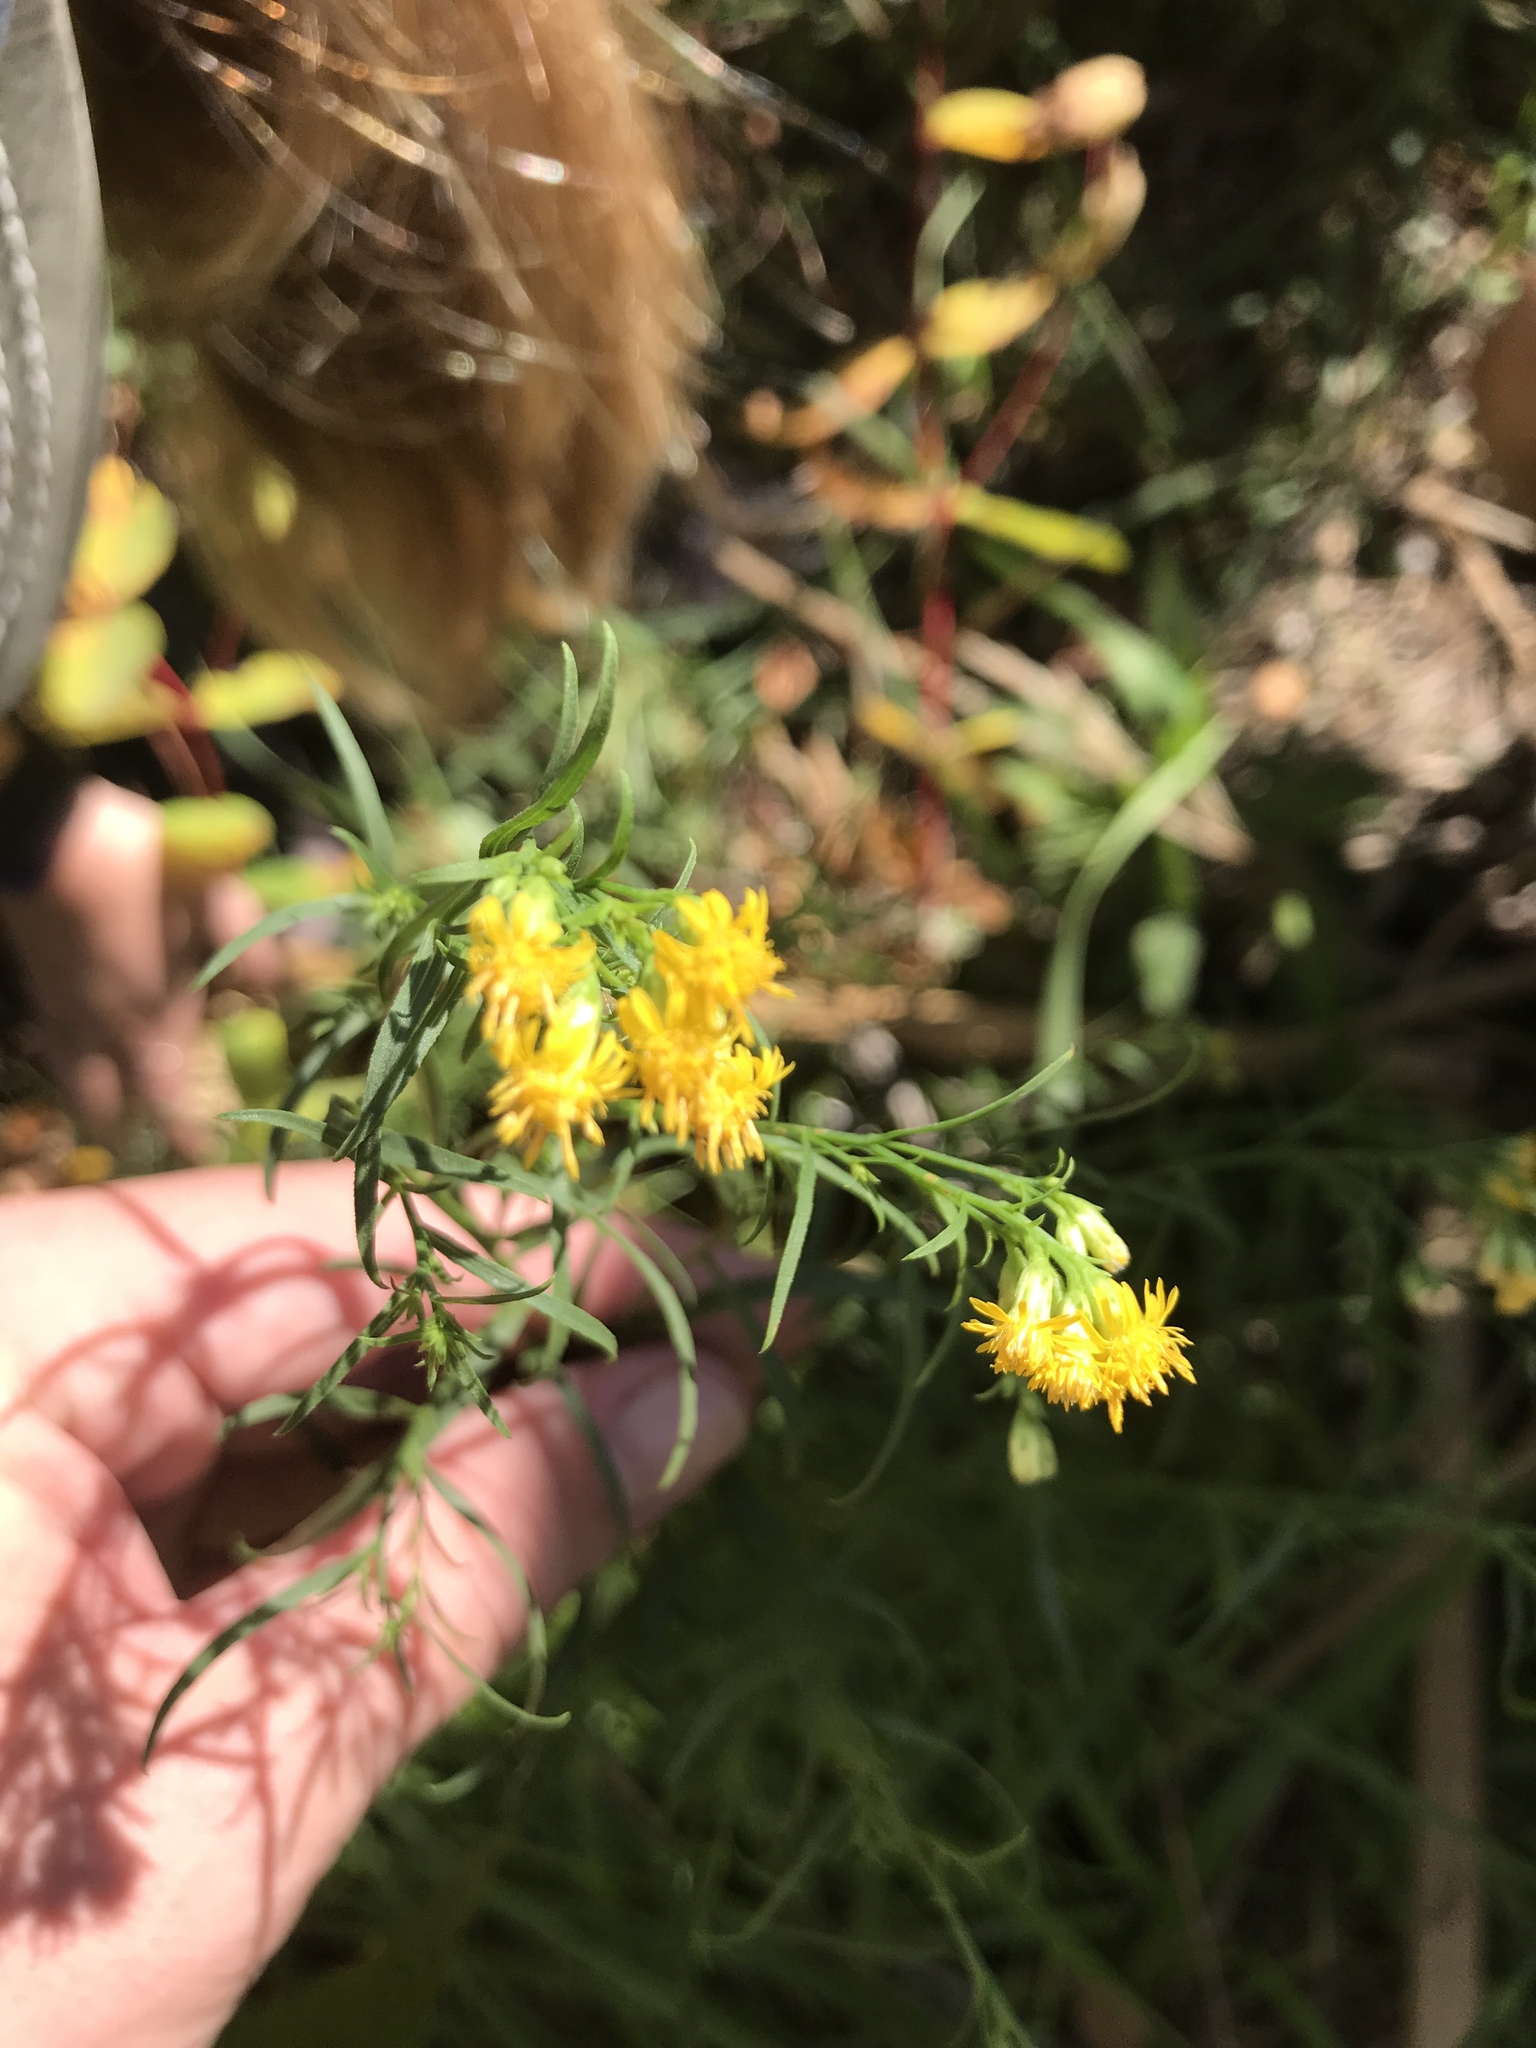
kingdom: Plantae
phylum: Tracheophyta
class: Magnoliopsida
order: Asterales
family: Asteraceae
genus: Gutierrezia
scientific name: Gutierrezia sarothrae
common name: Broom snakeweed
